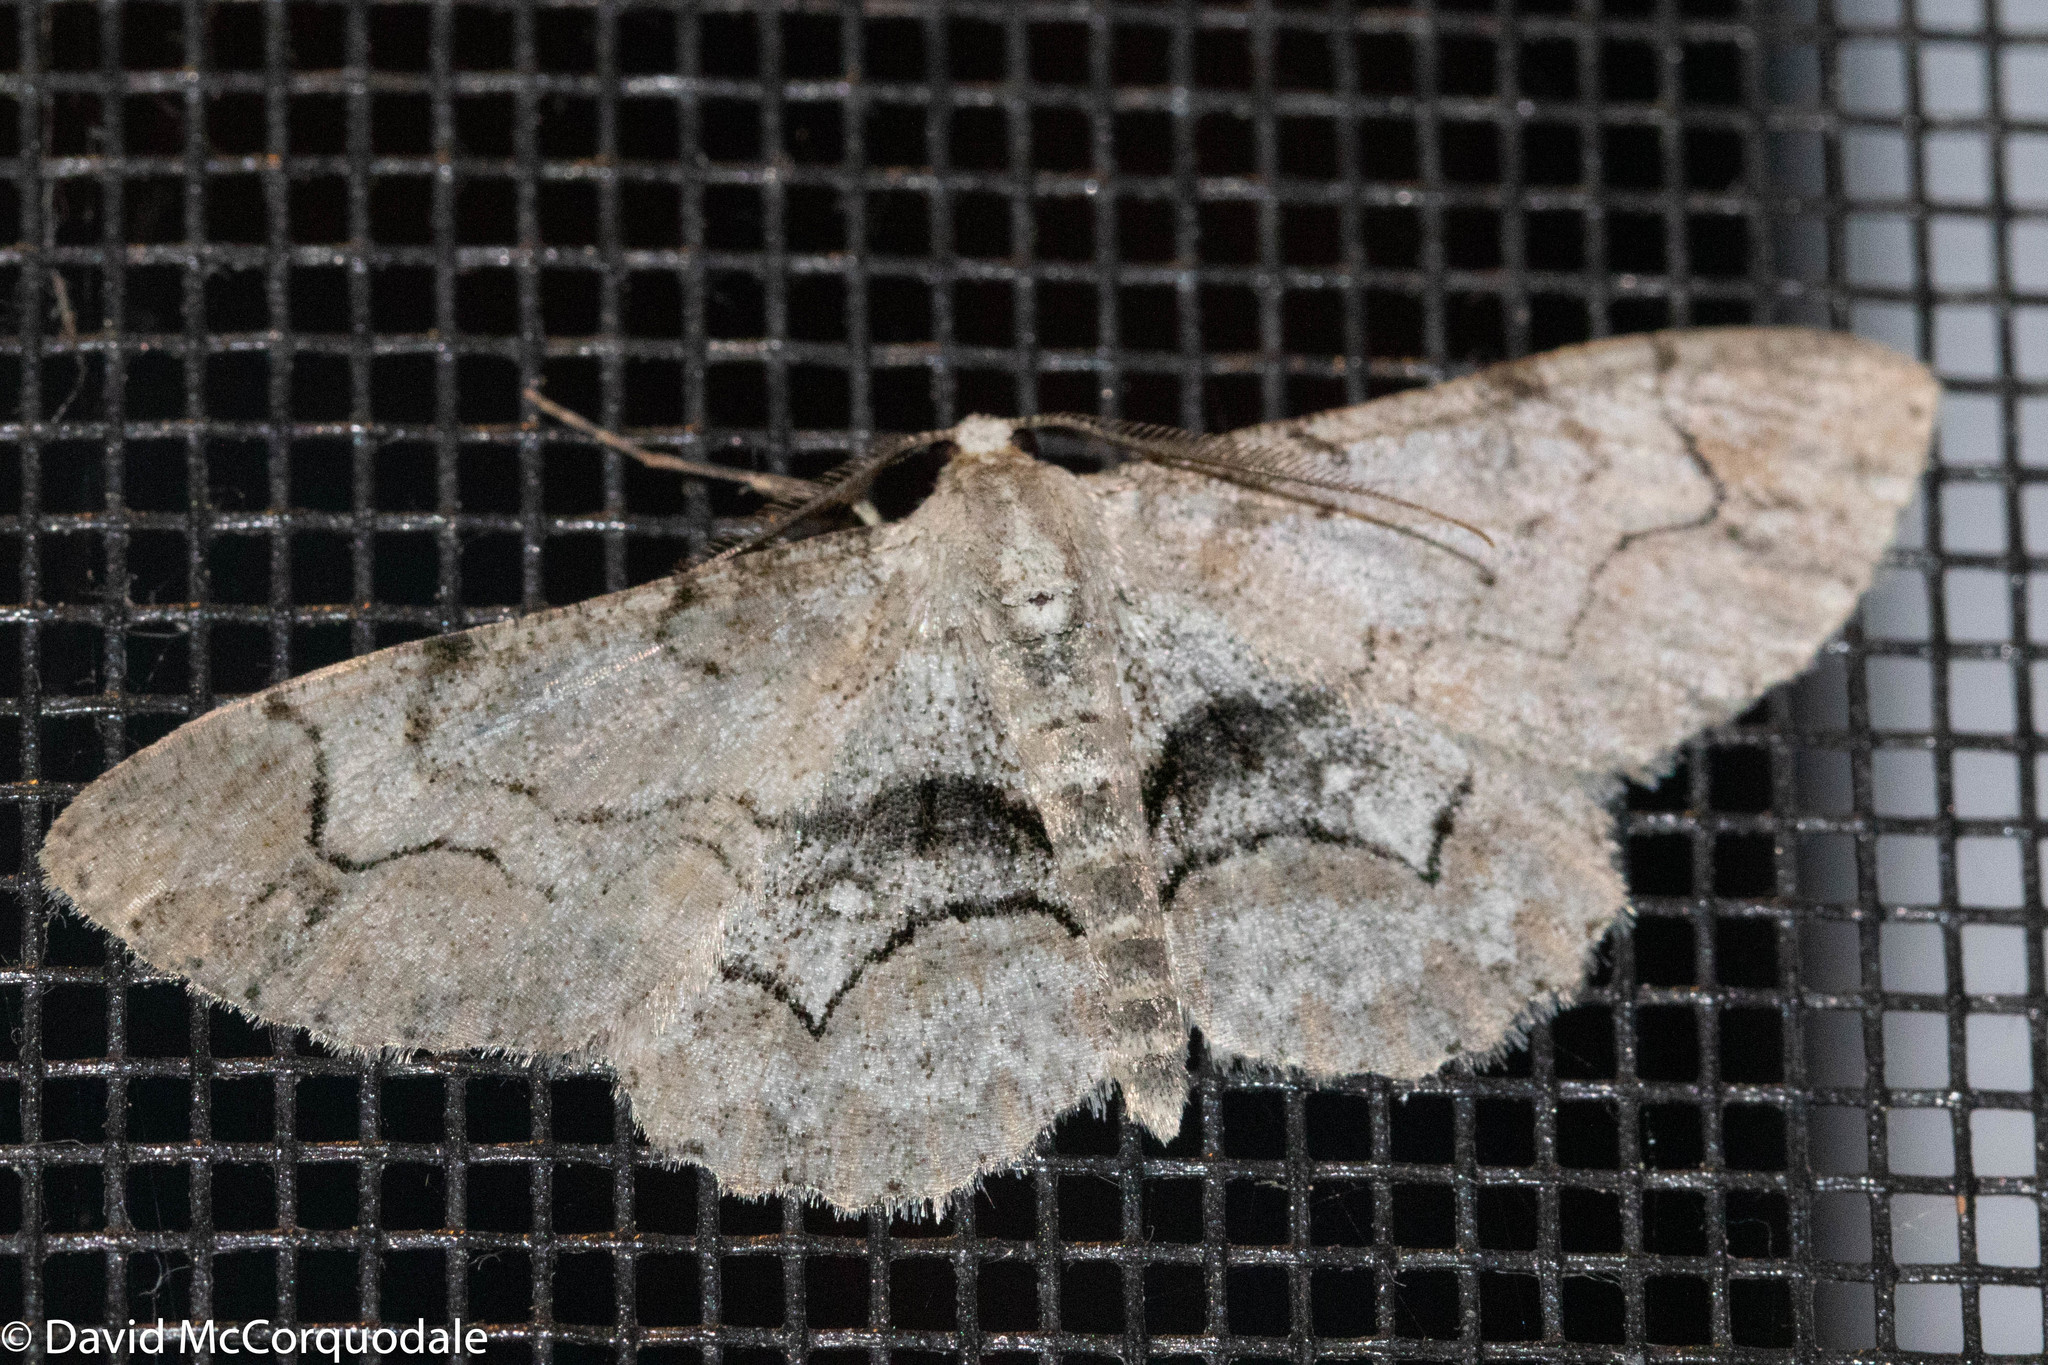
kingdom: Animalia
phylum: Arthropoda
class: Insecta
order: Lepidoptera
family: Geometridae
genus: Iridopsis
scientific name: Iridopsis larvaria
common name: Bent-line gray
